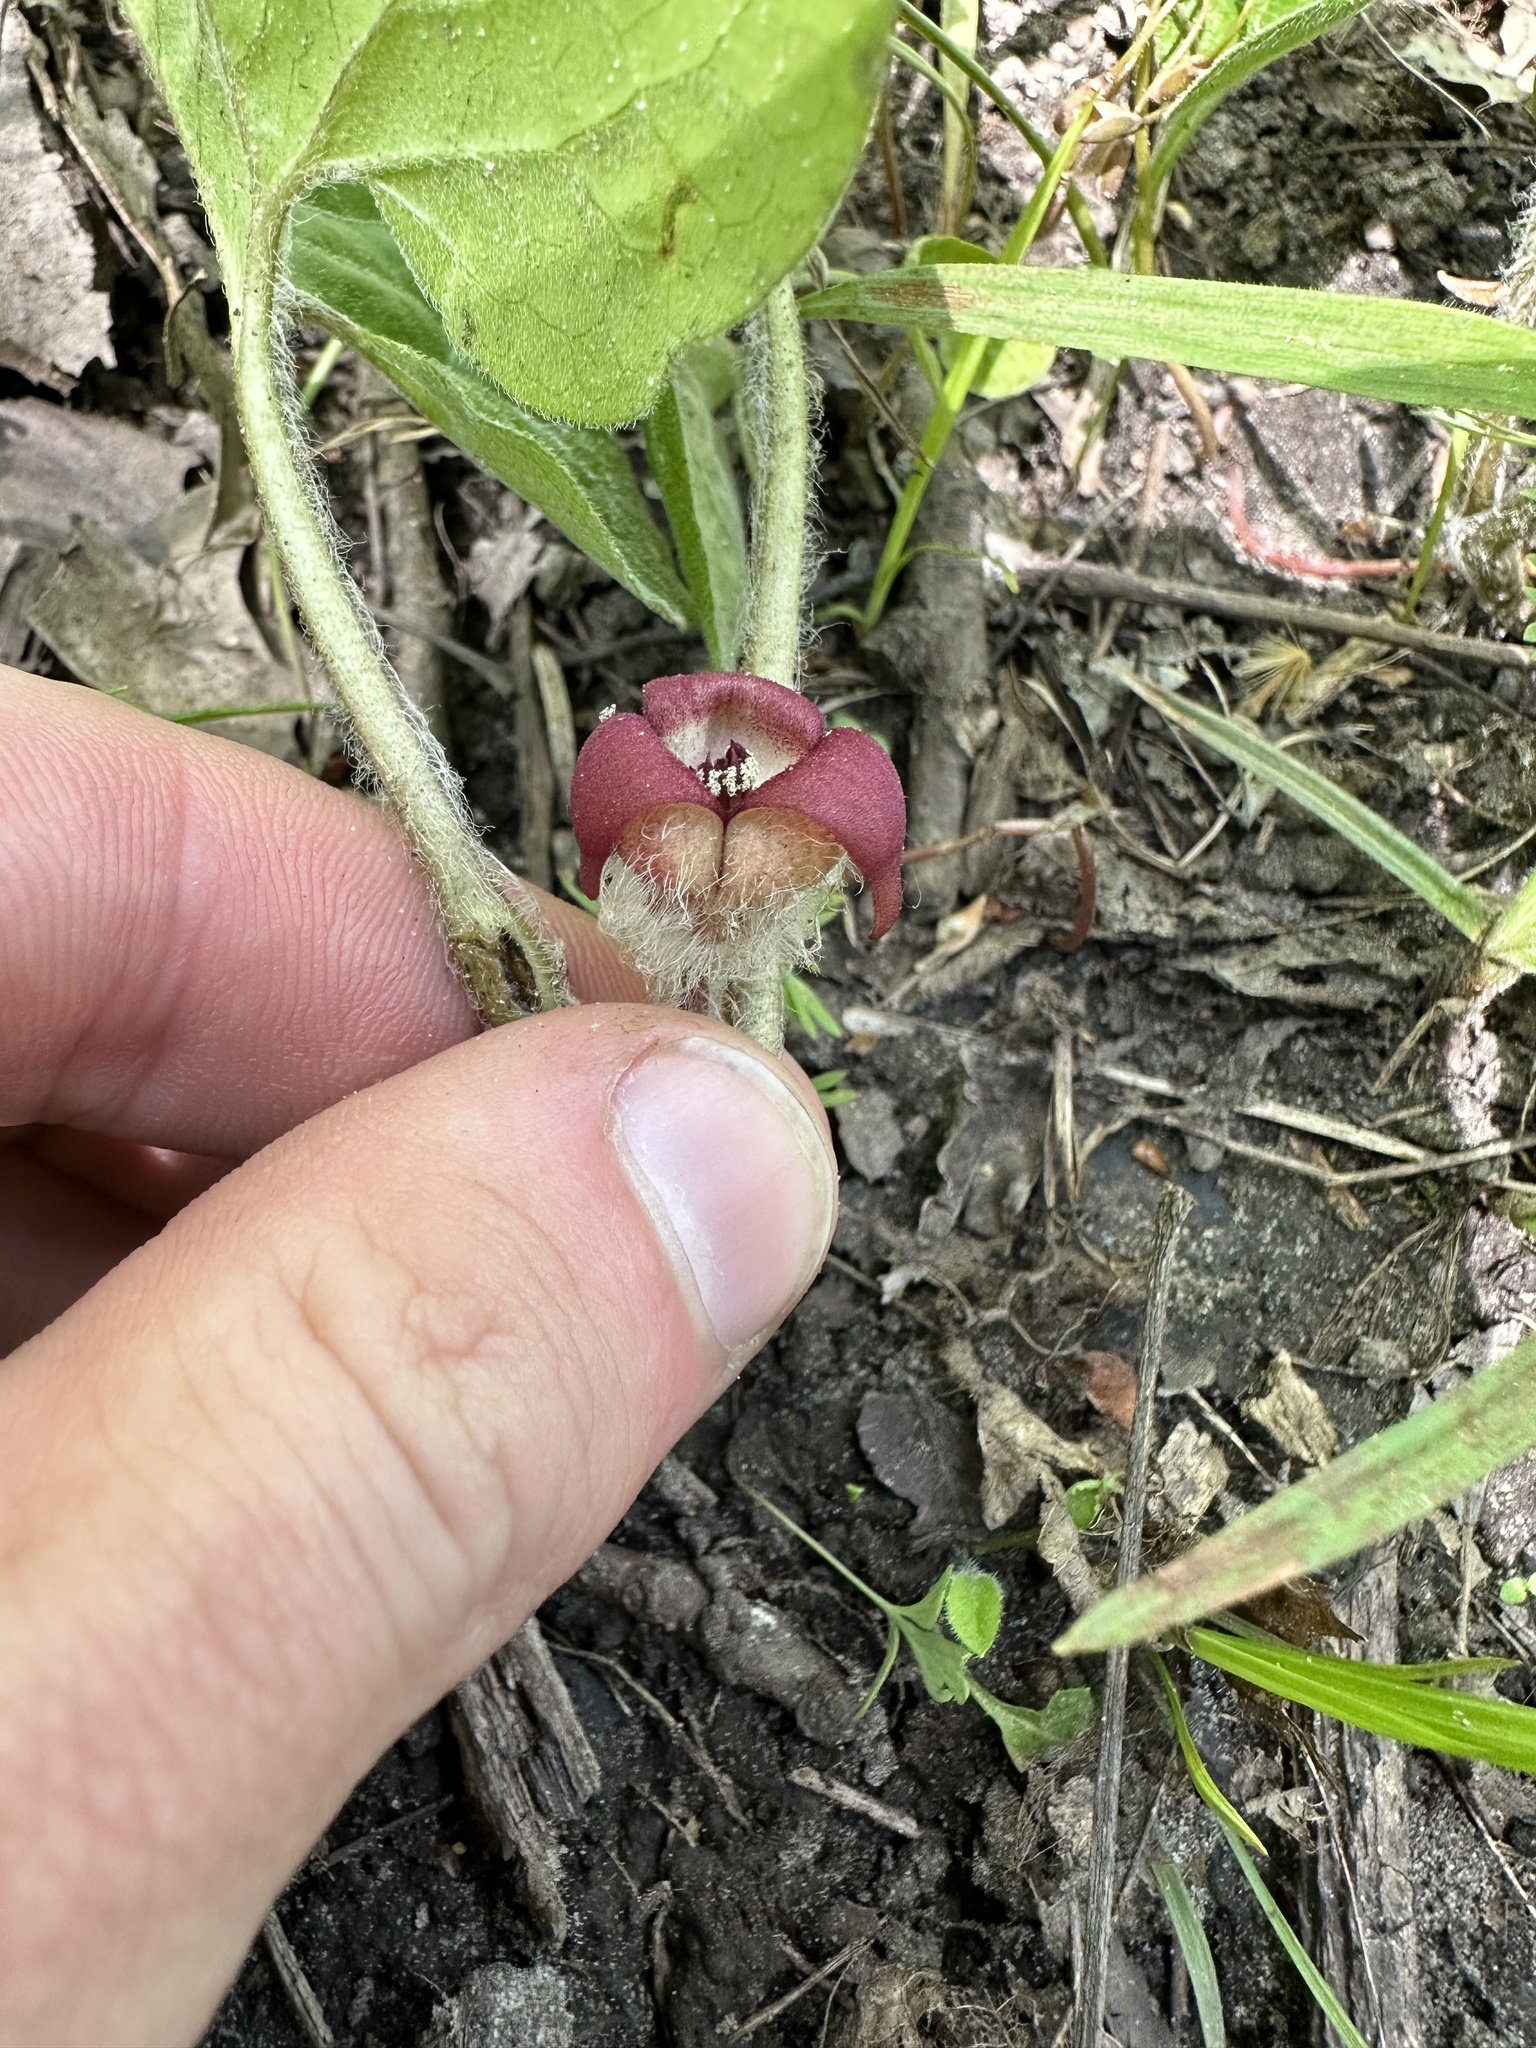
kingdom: Plantae
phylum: Tracheophyta
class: Magnoliopsida
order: Piperales
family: Aristolochiaceae
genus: Asarum
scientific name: Asarum canadense
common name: Wild ginger
